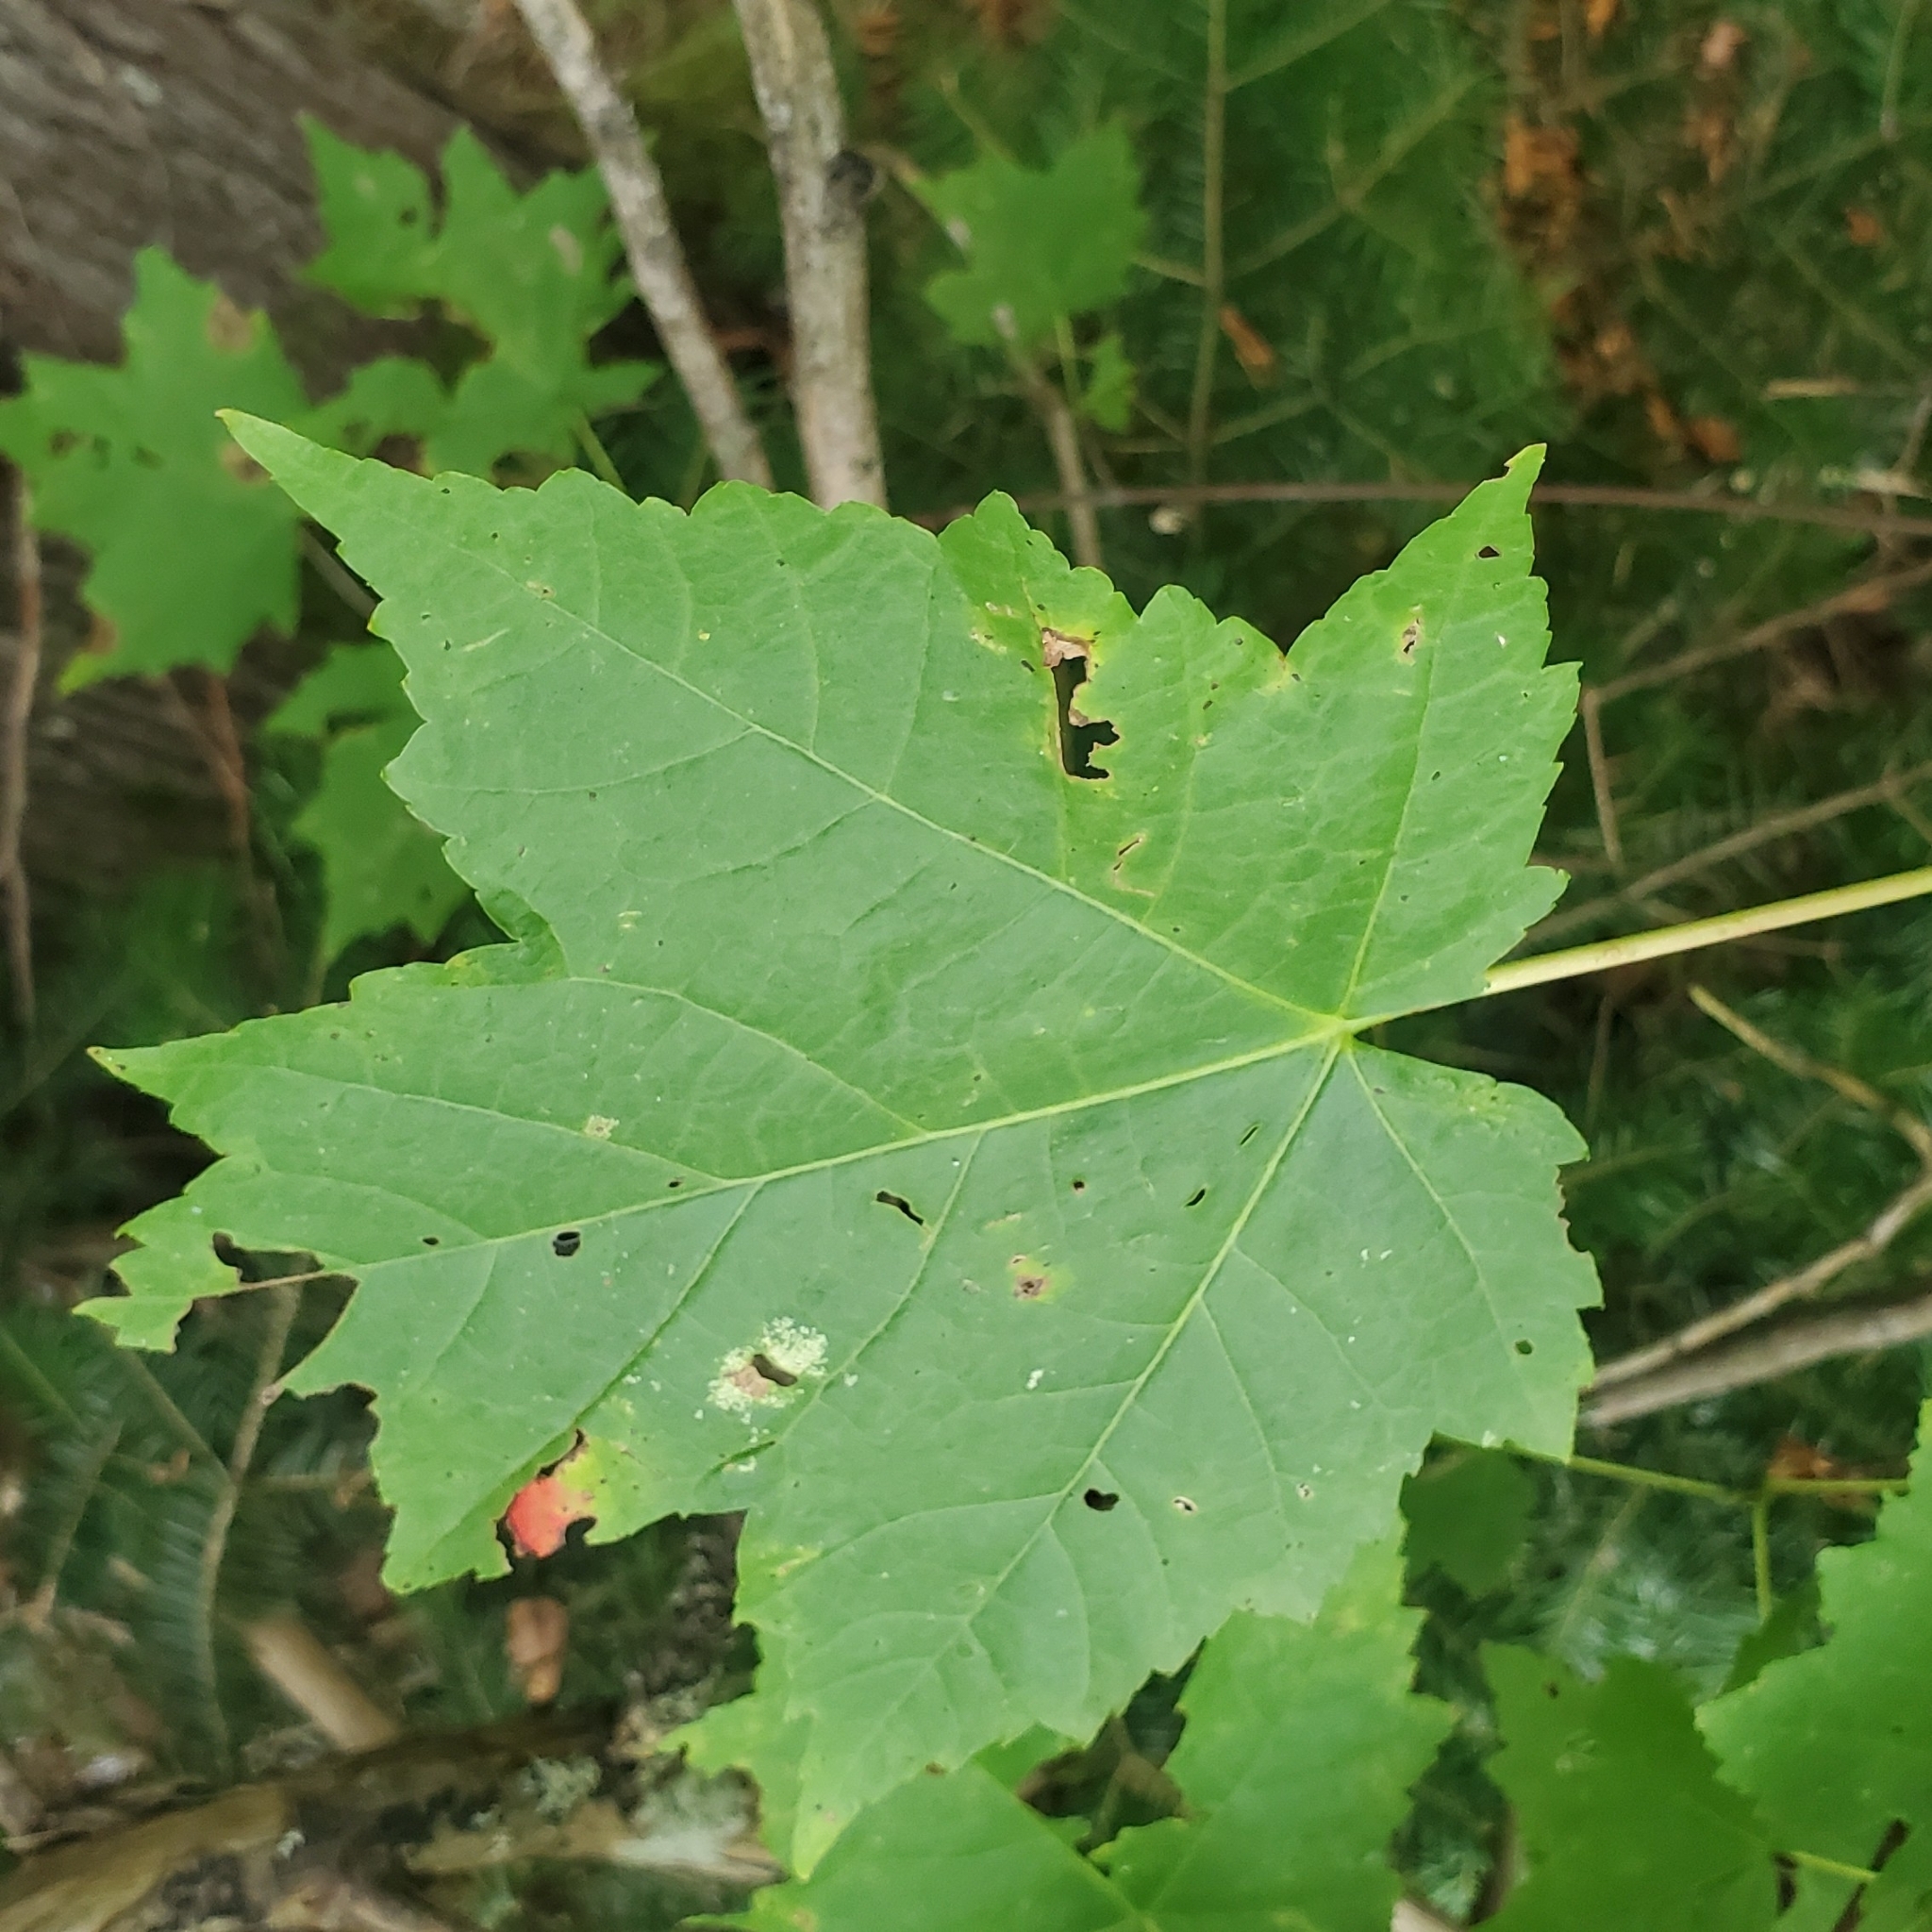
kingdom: Plantae
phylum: Tracheophyta
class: Magnoliopsida
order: Sapindales
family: Sapindaceae
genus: Acer
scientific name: Acer rubrum
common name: Red maple
